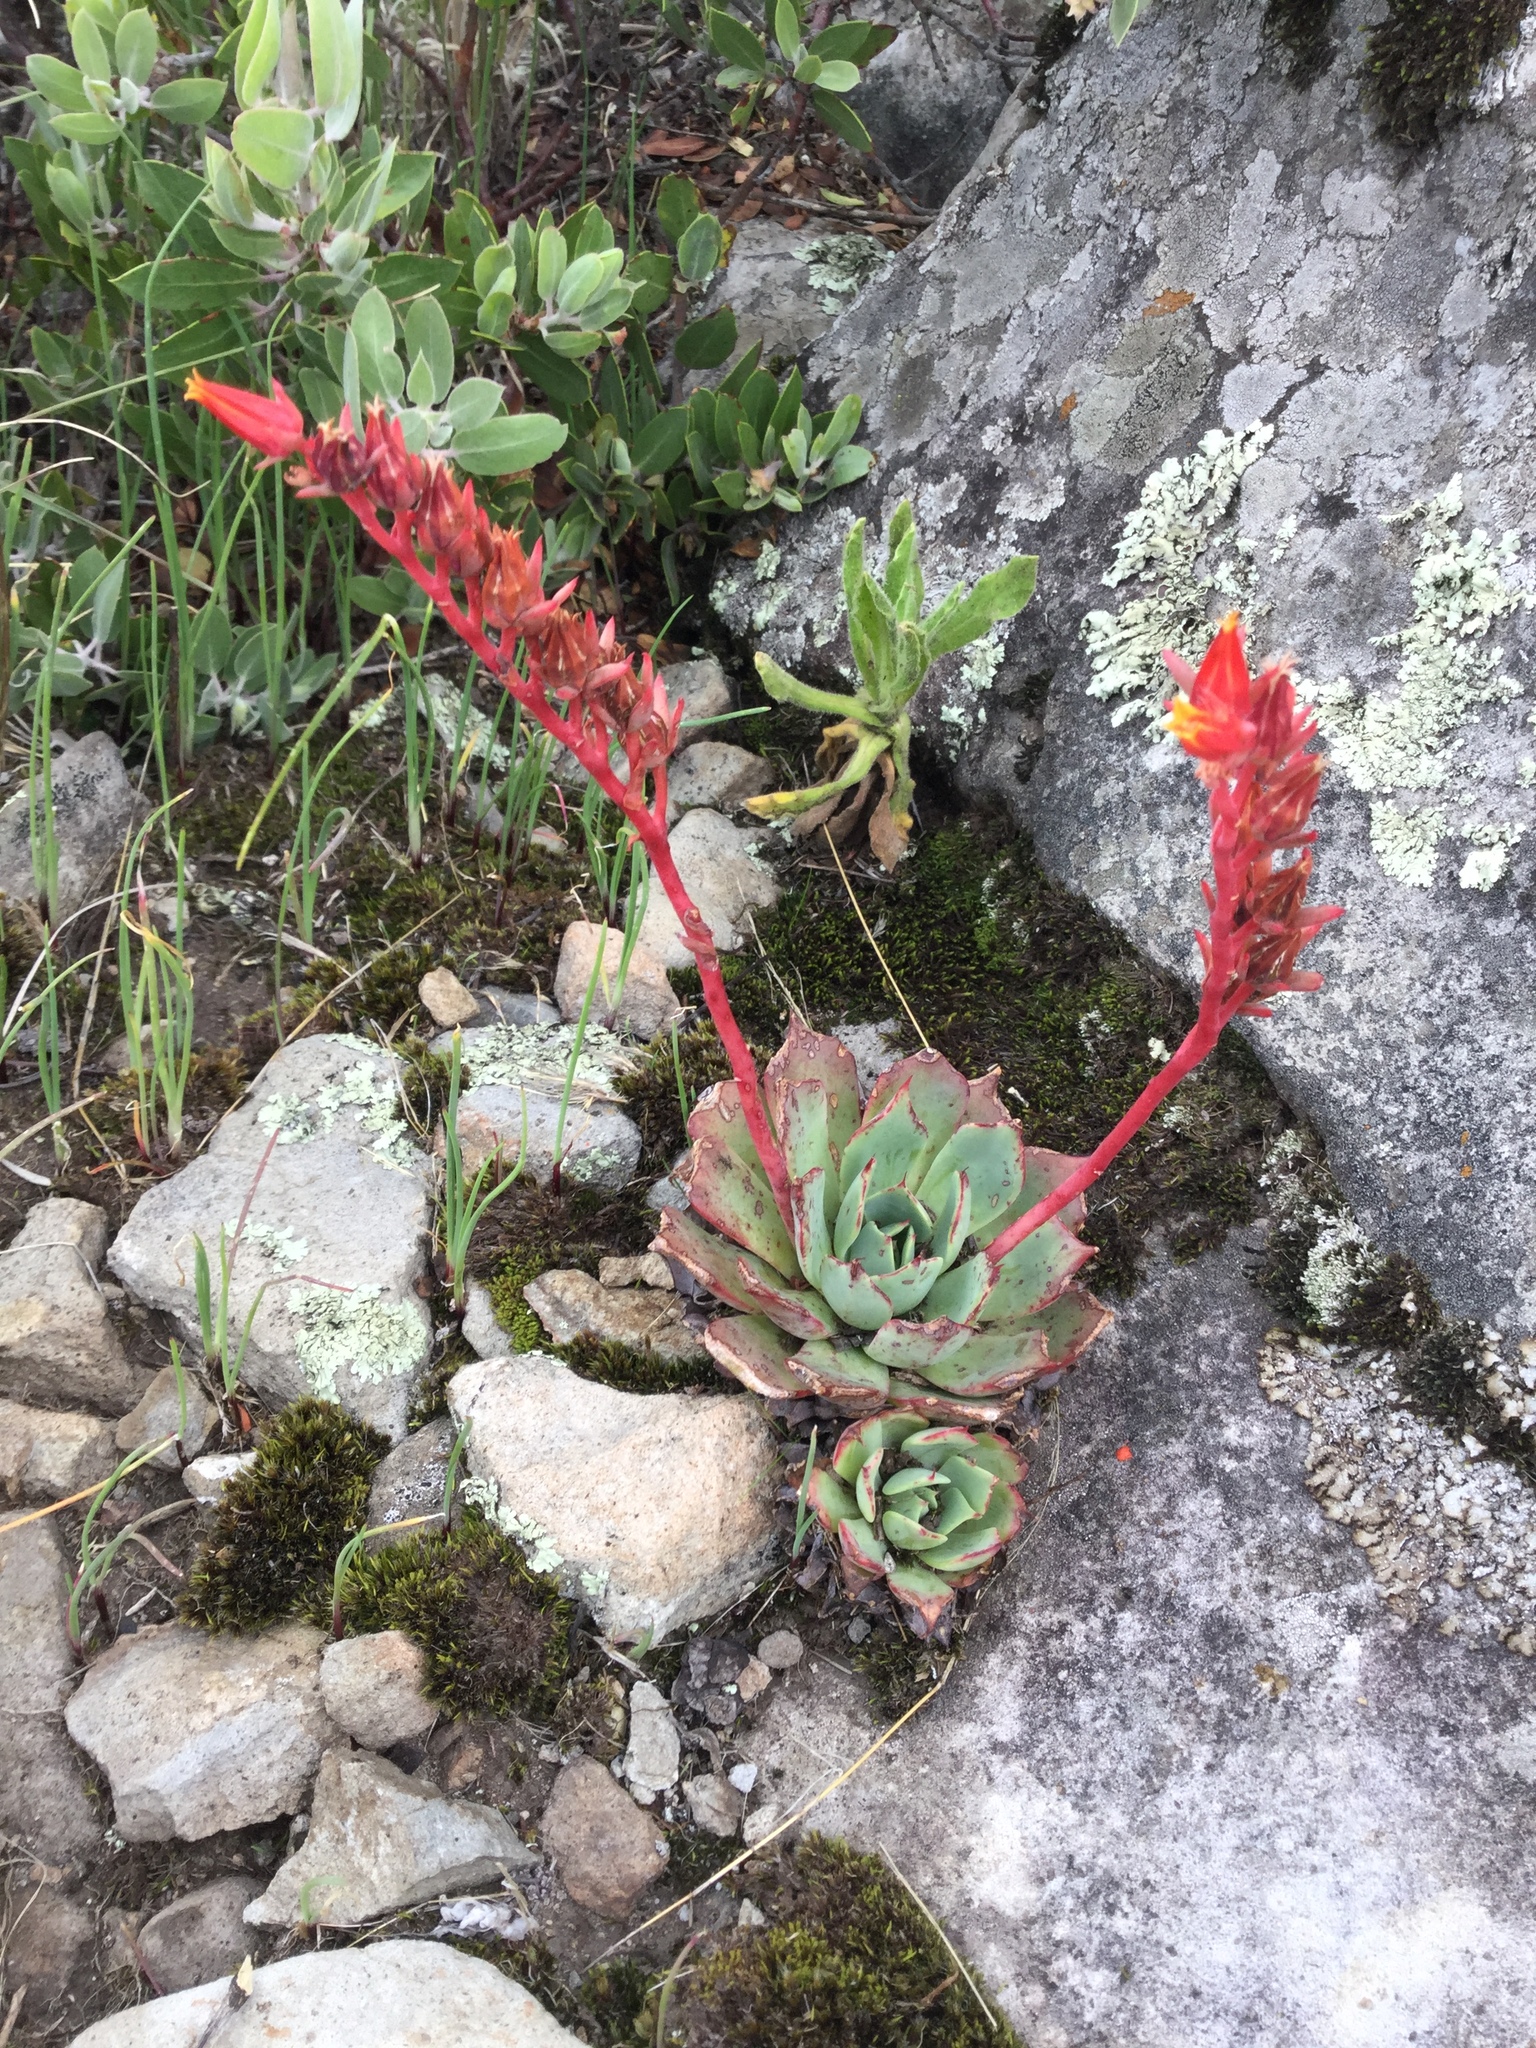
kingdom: Plantae
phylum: Tracheophyta
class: Magnoliopsida
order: Saxifragales
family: Crassulaceae
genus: Echeveria
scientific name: Echeveria secunda
